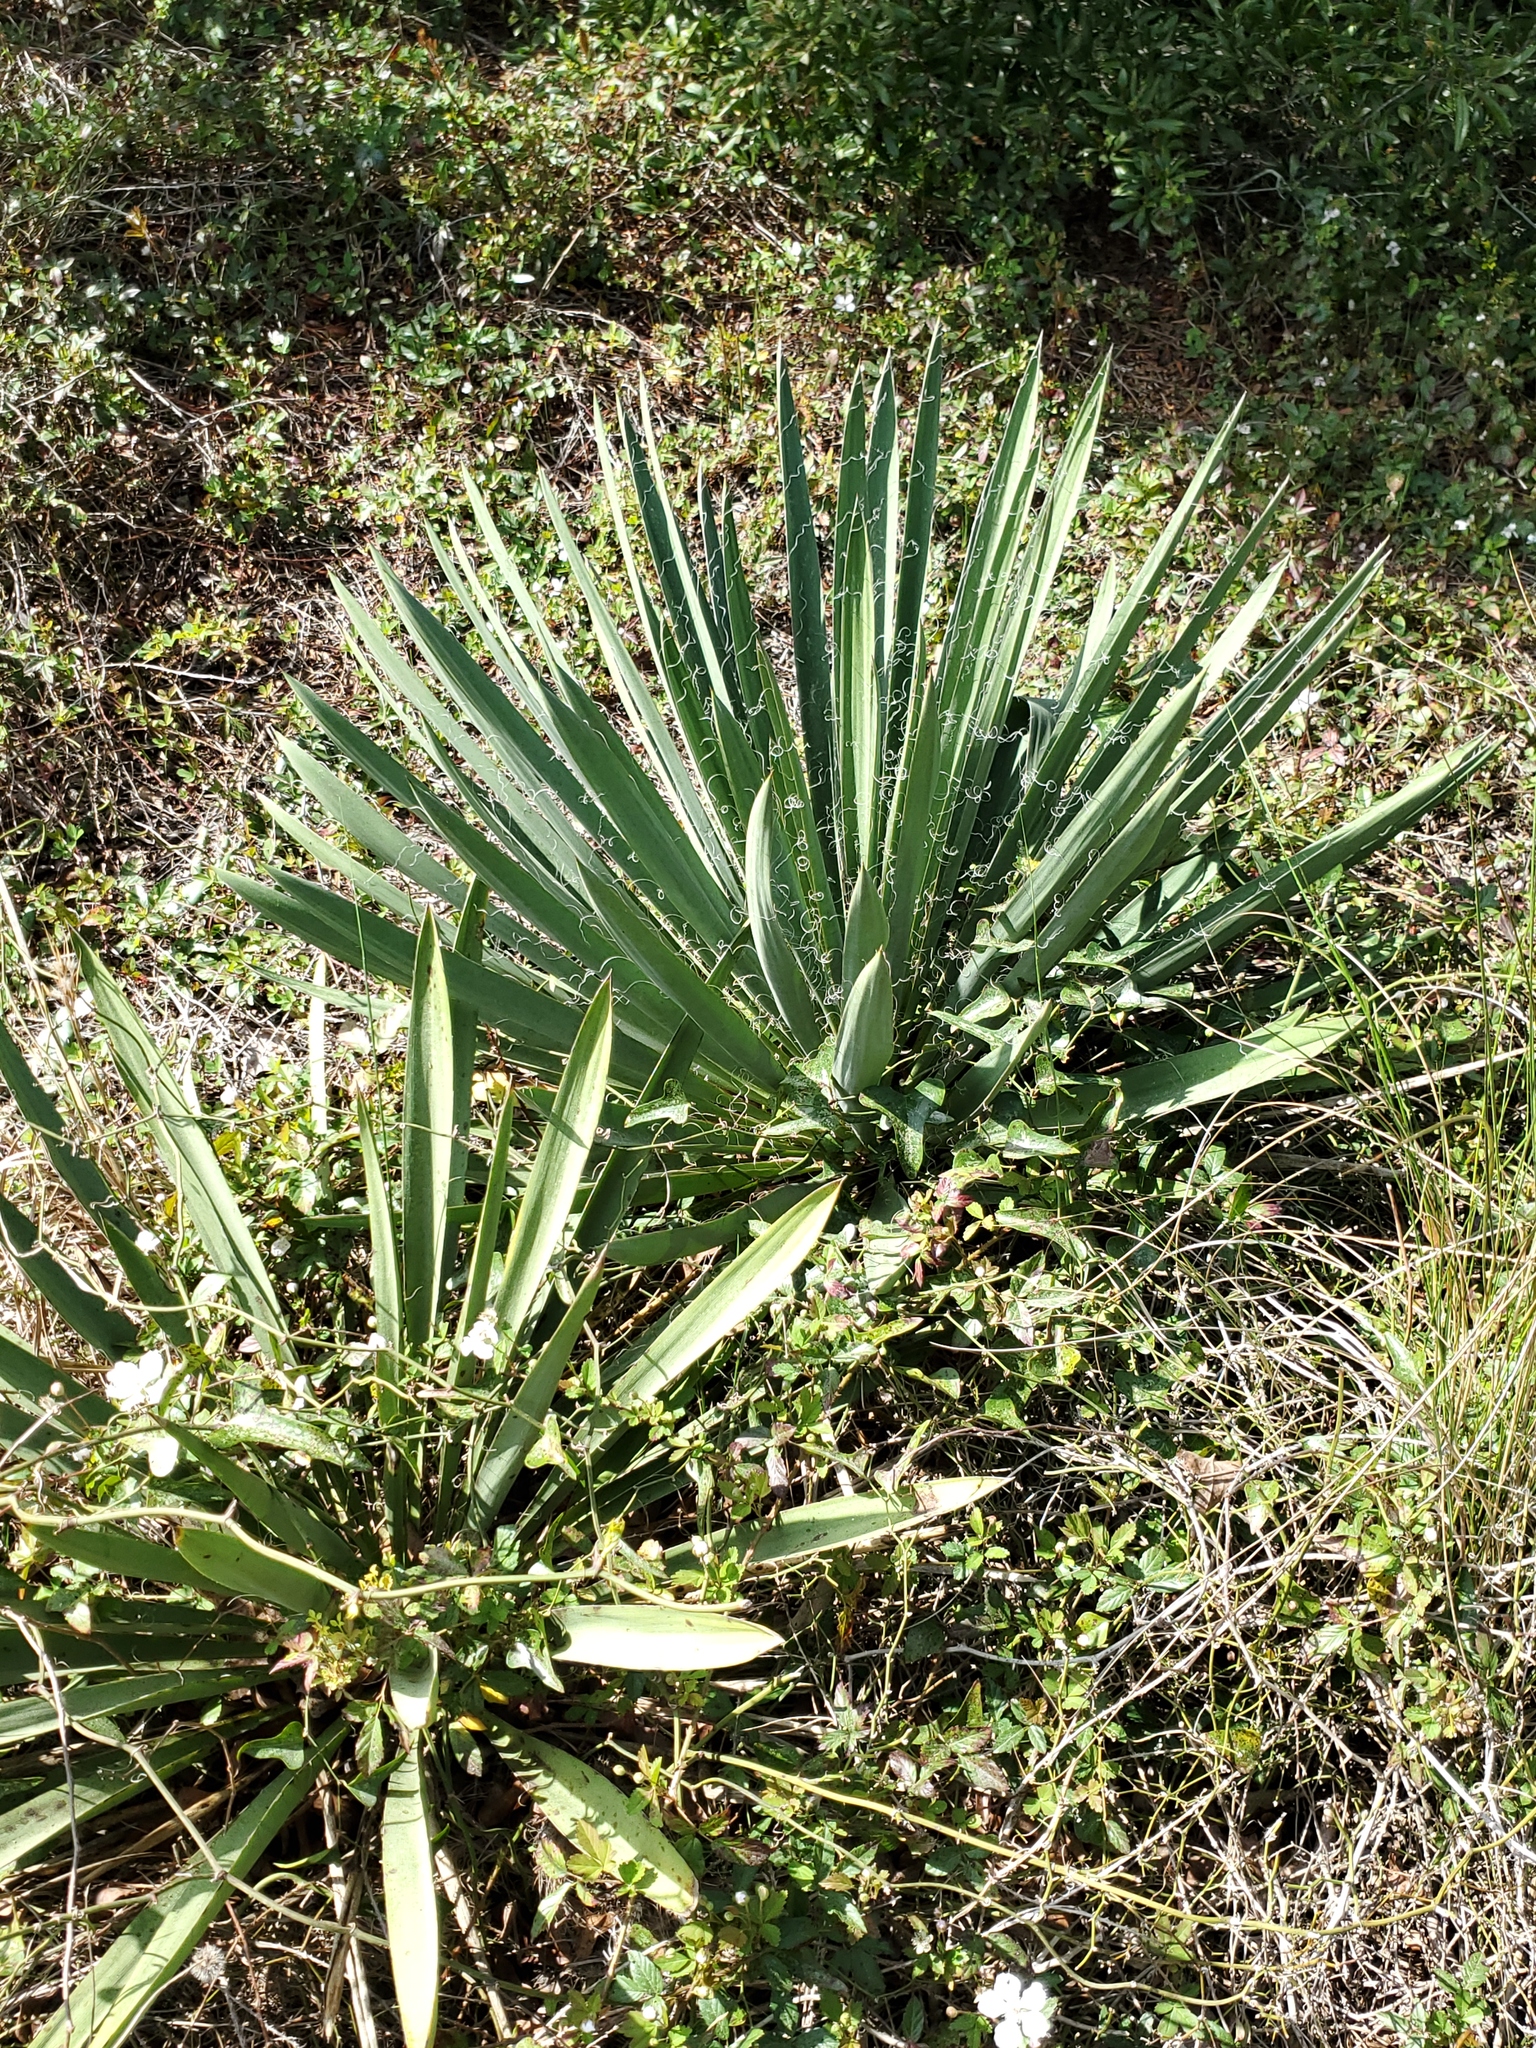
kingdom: Plantae
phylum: Tracheophyta
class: Liliopsida
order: Asparagales
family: Asparagaceae
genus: Yucca
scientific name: Yucca filamentosa
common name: Adam's-needle
